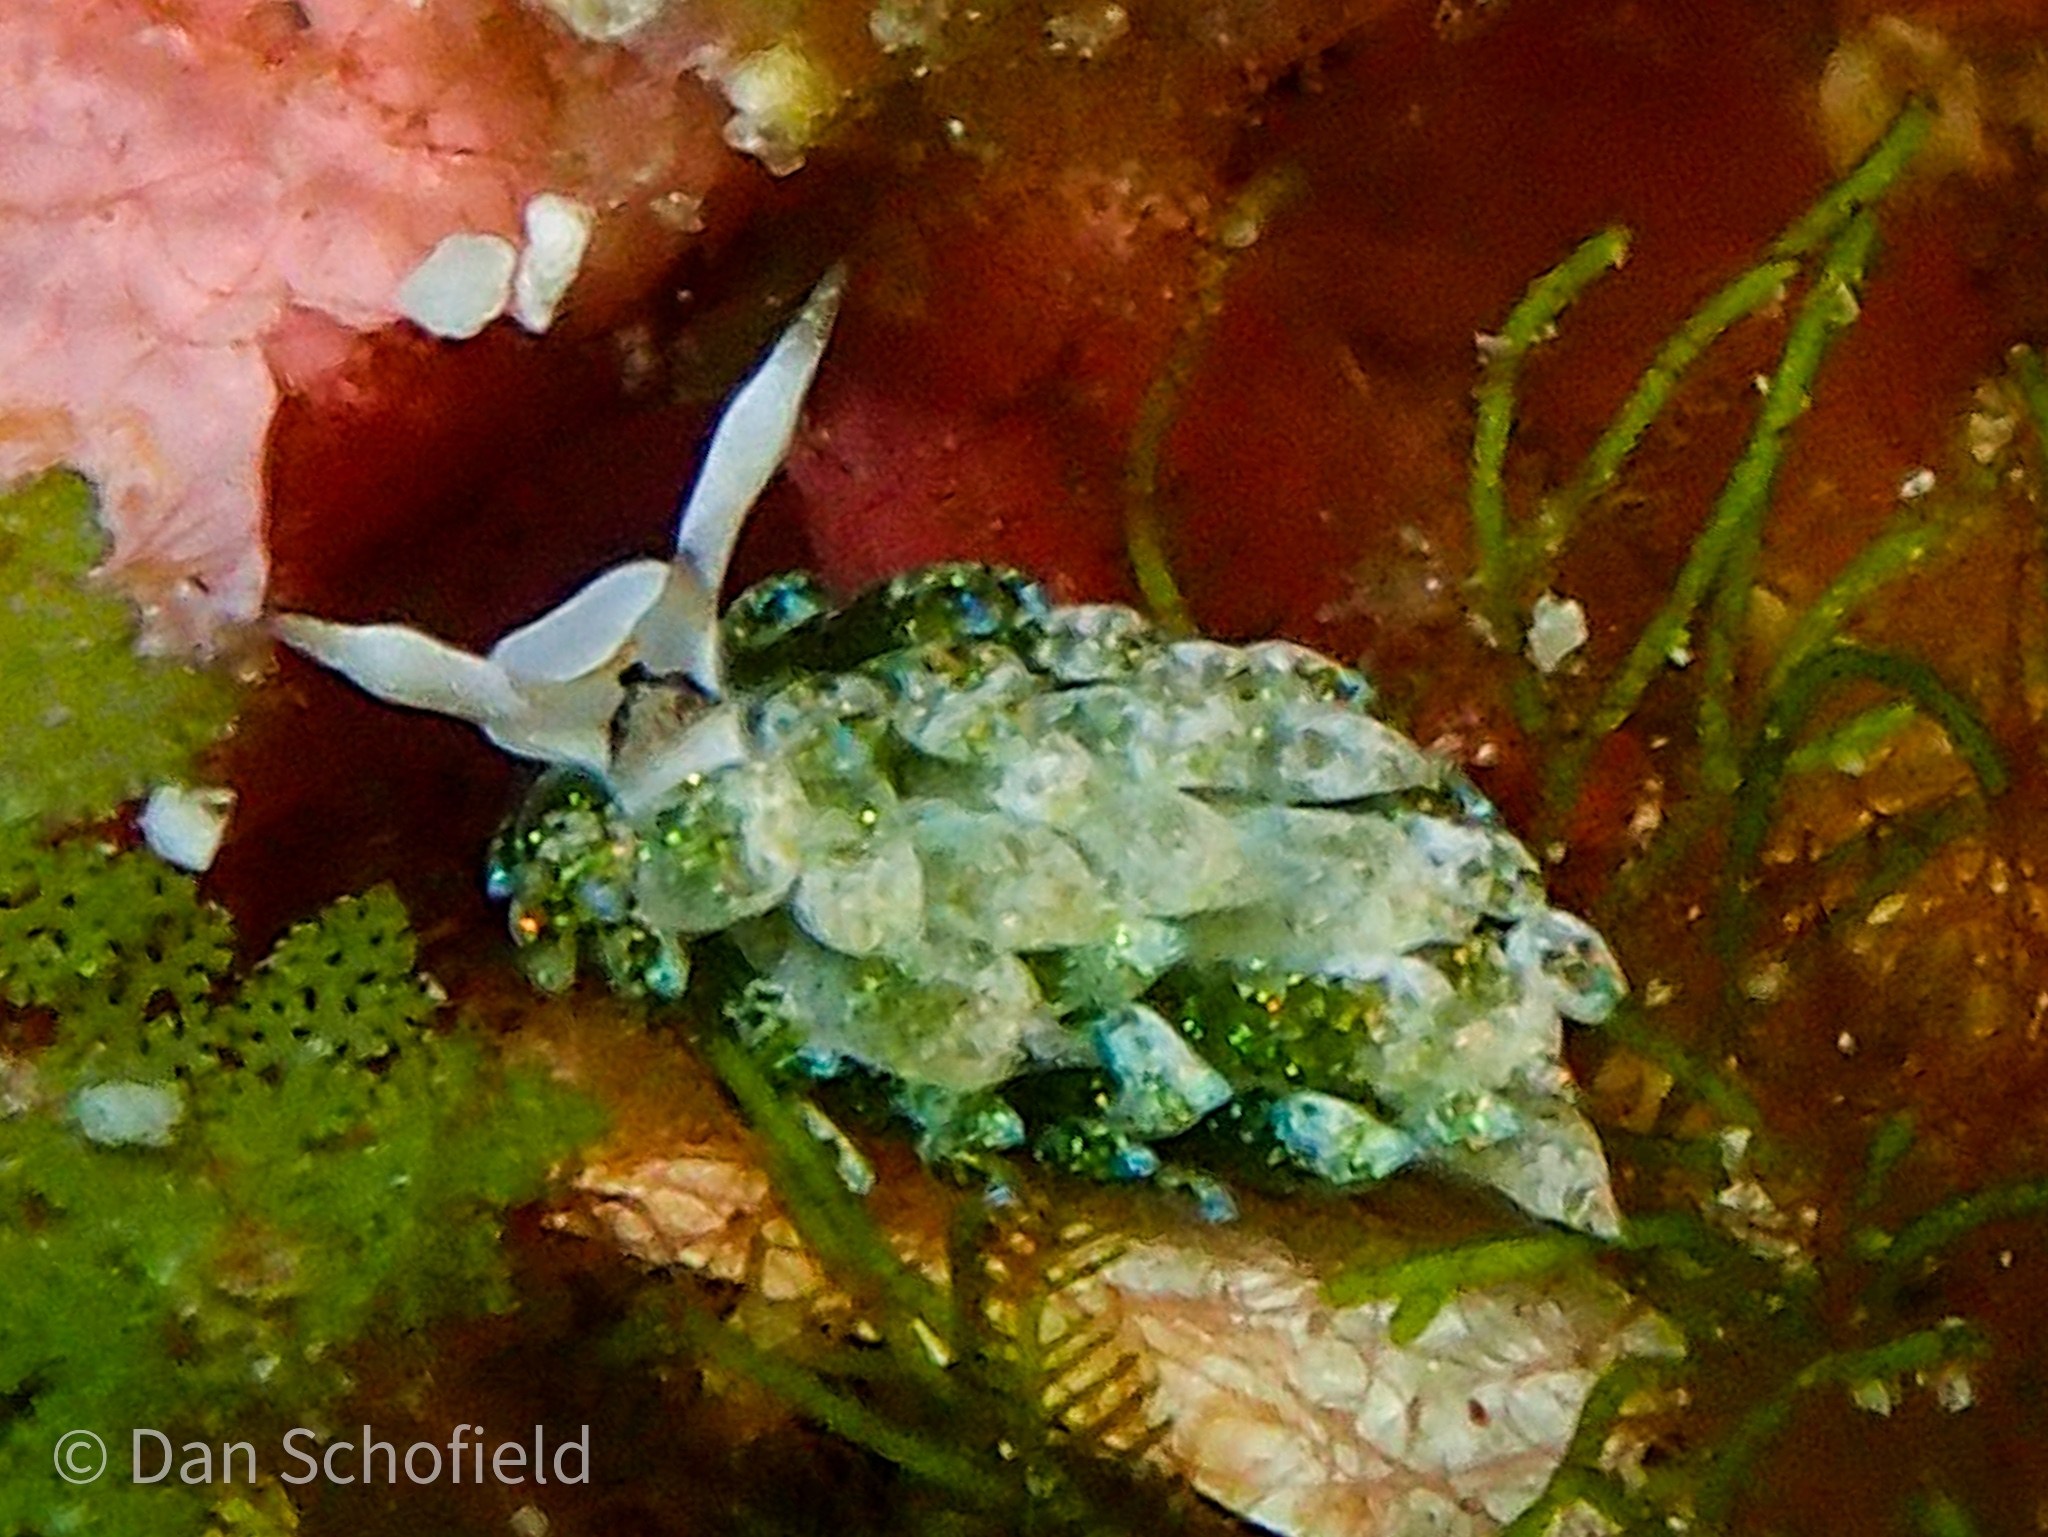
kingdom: Animalia
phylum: Mollusca
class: Gastropoda
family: Costasiellidae
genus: Costasiella
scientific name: Costasiella fridae
